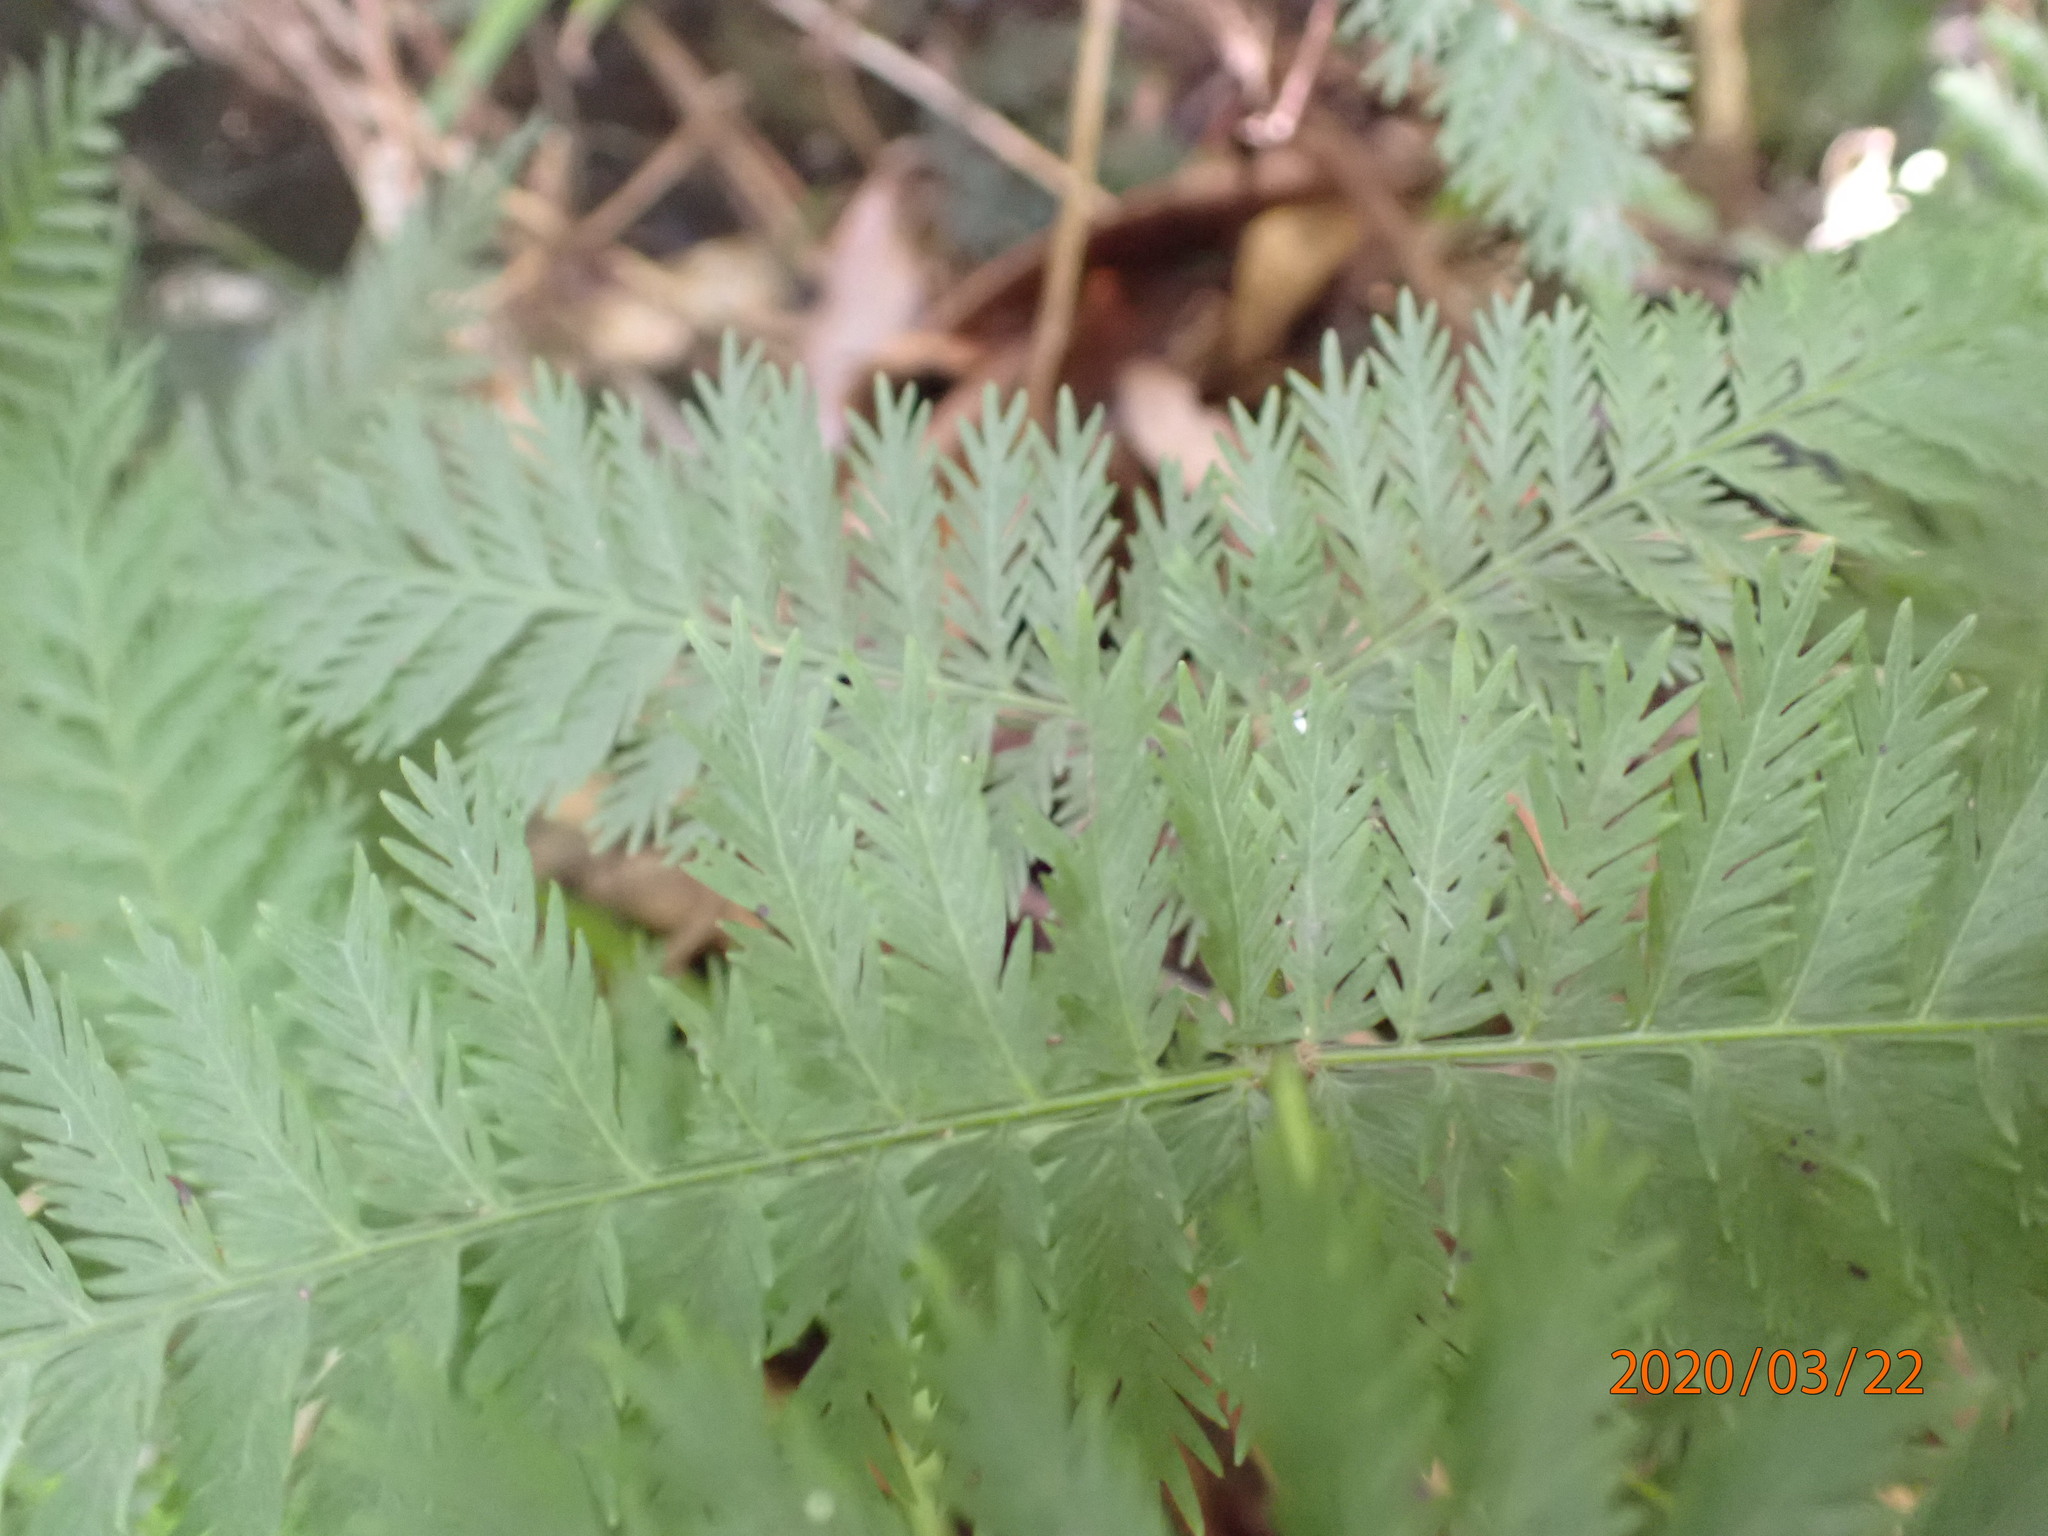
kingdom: Plantae
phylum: Tracheophyta
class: Polypodiopsida
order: Osmundales
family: Osmundaceae
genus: Leptopteris
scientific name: Leptopteris hymenophylloides
